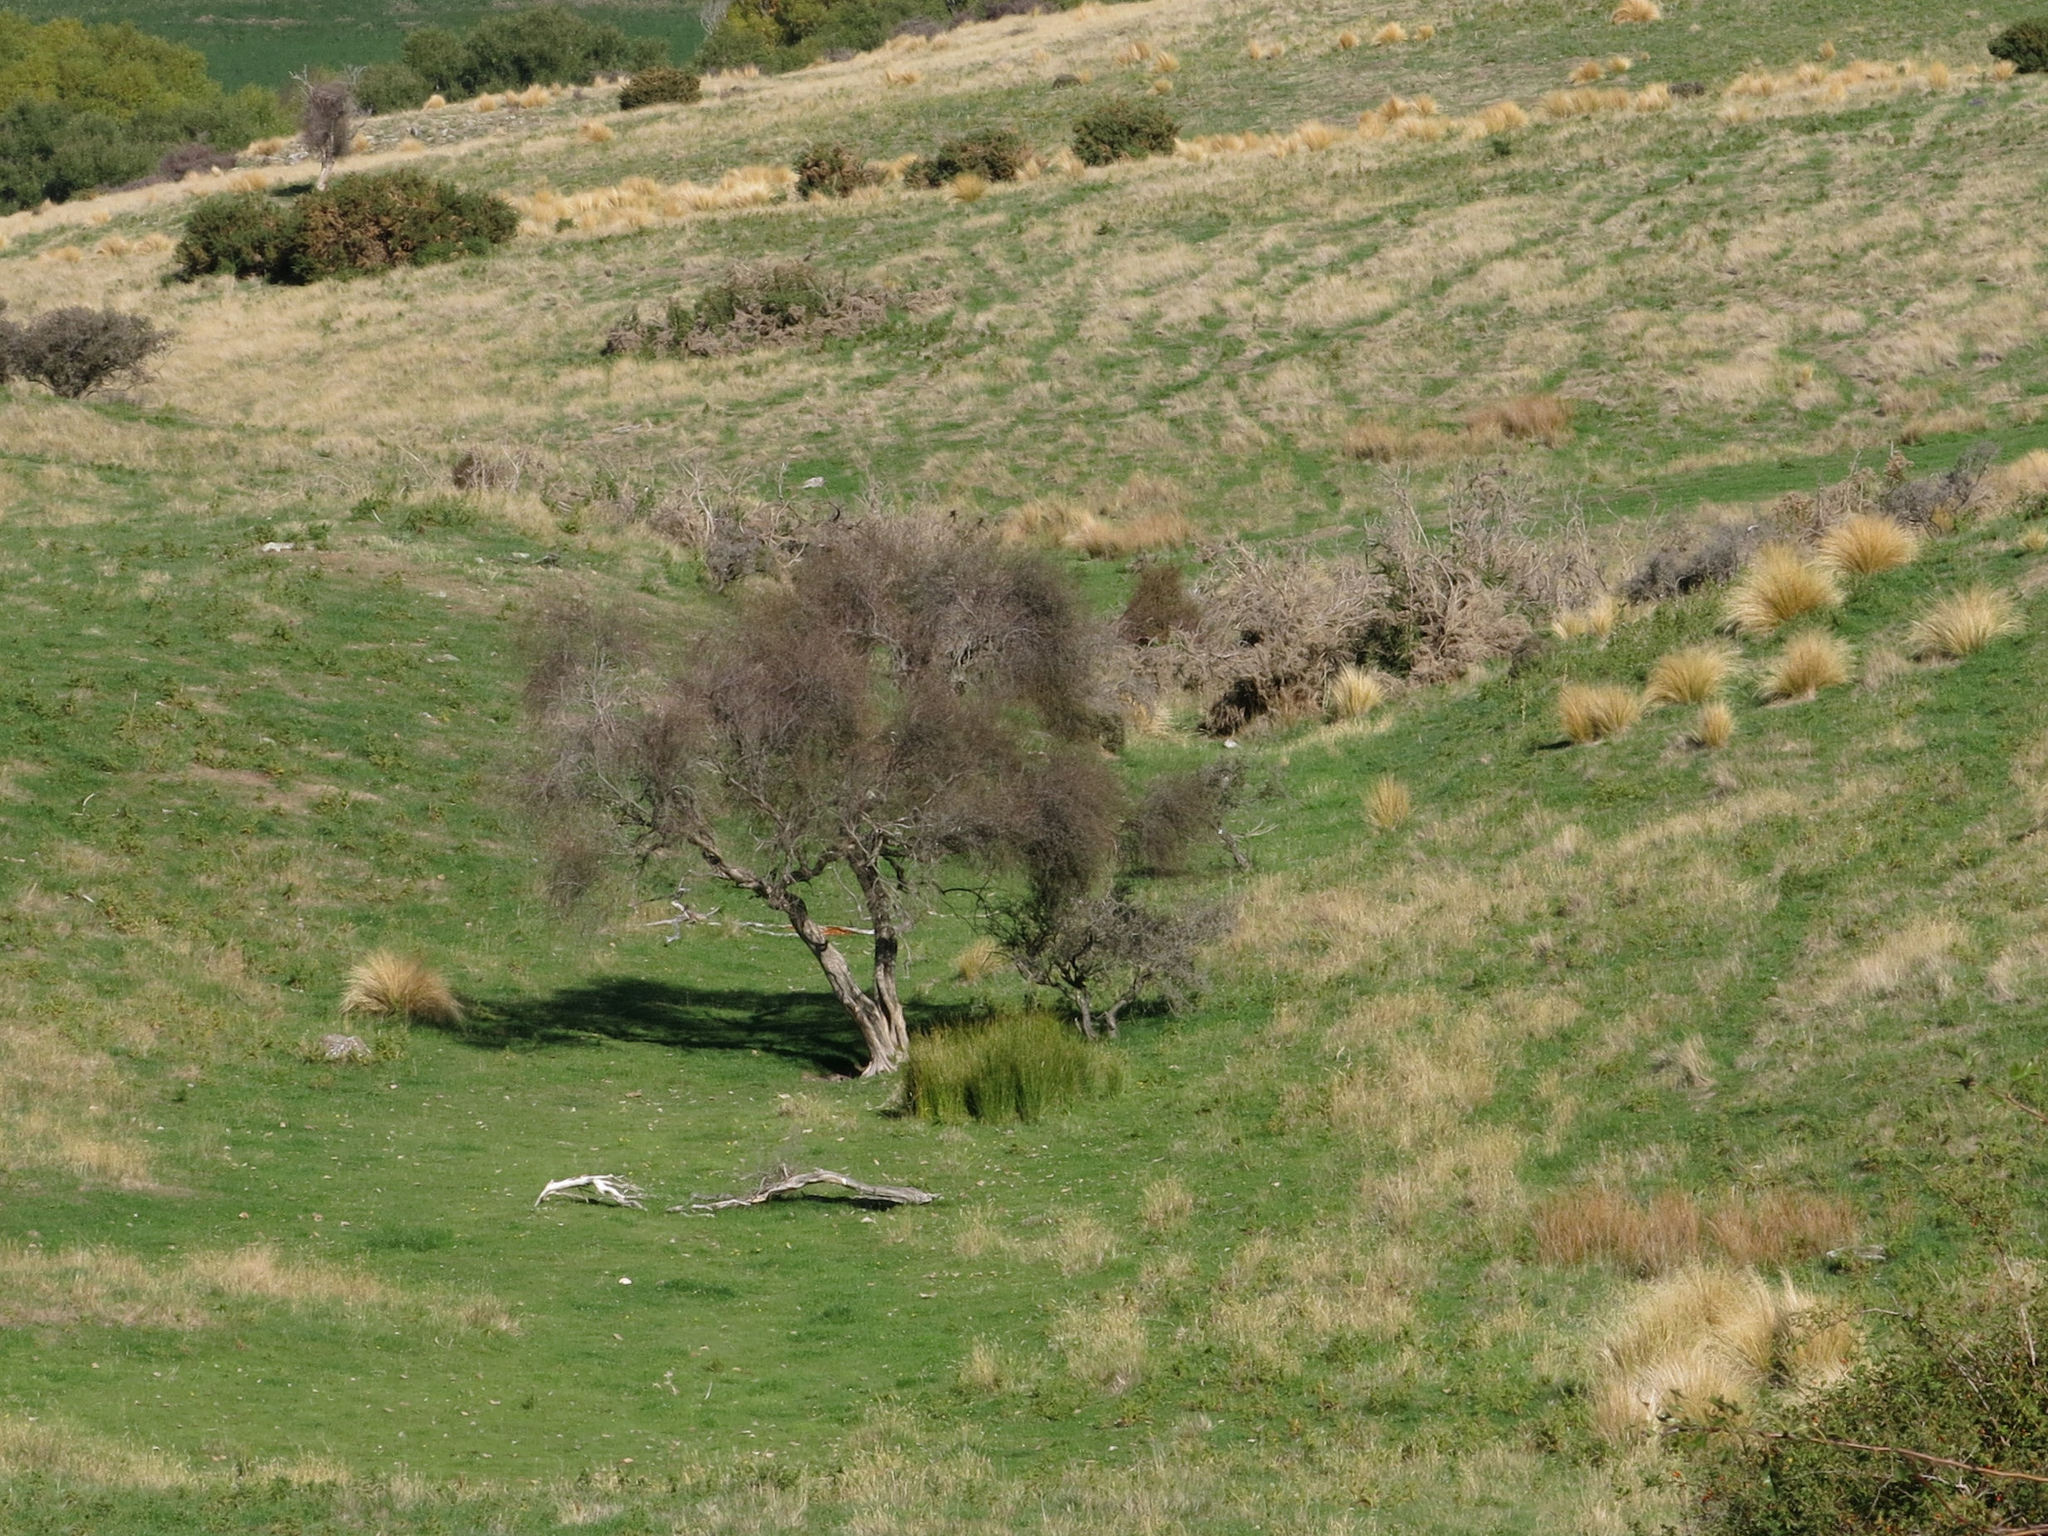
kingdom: Plantae
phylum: Tracheophyta
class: Magnoliopsida
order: Asterales
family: Asteraceae
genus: Olearia
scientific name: Olearia lineata
